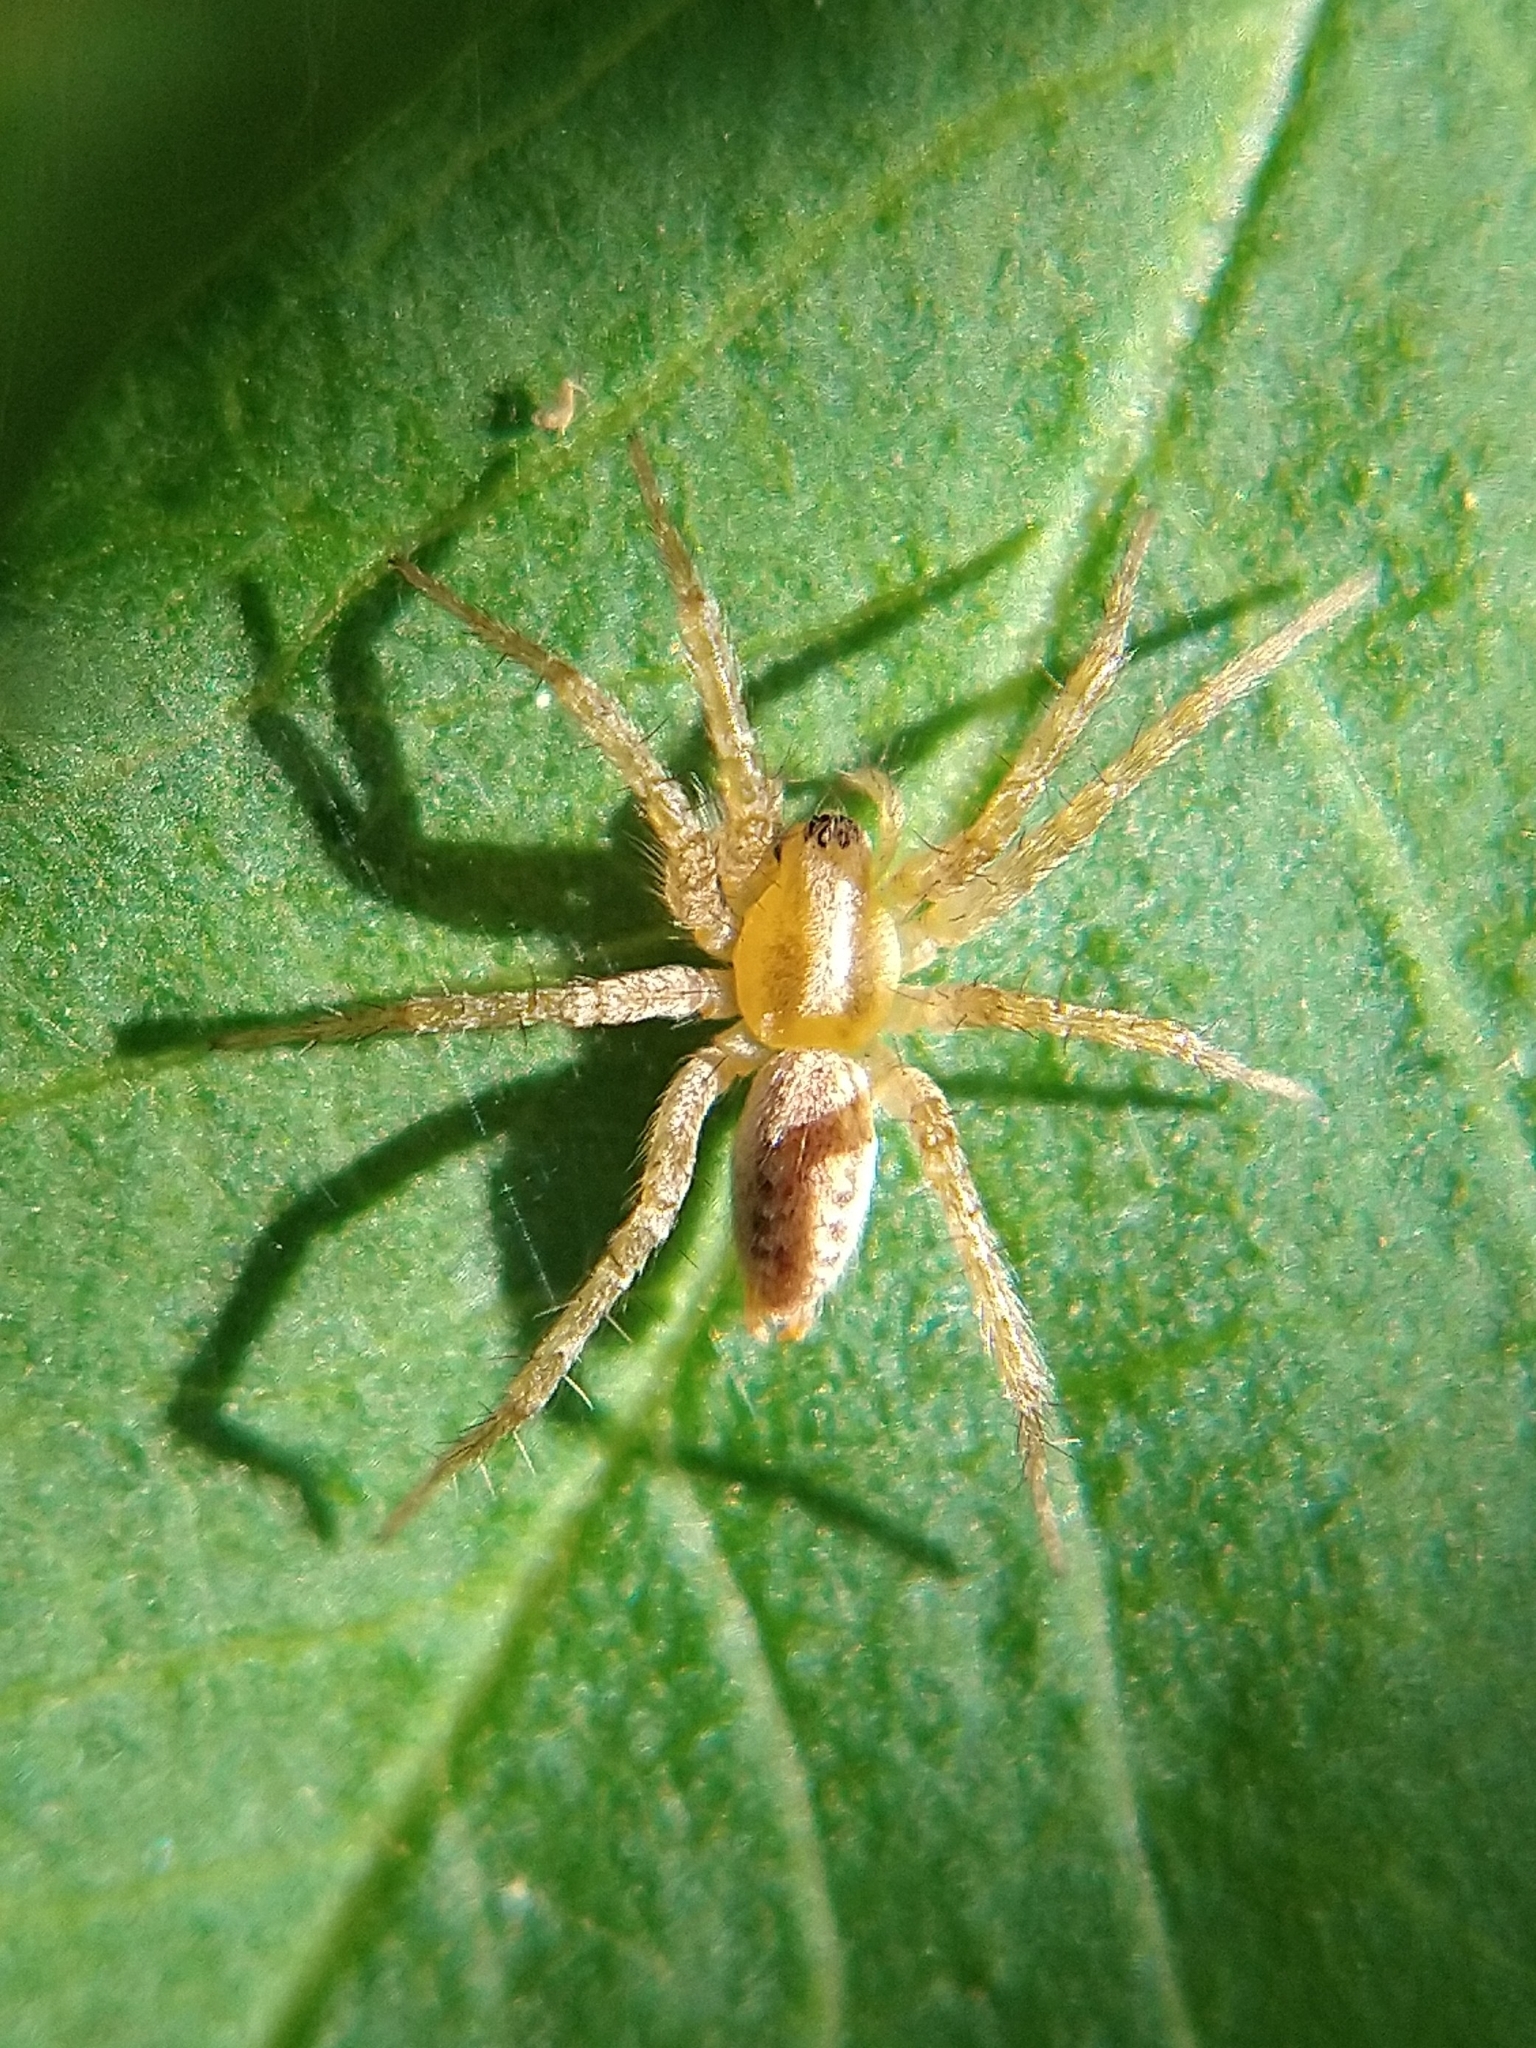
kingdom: Animalia
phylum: Arthropoda
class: Arachnida
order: Araneae
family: Agelenidae
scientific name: Agelenidae
